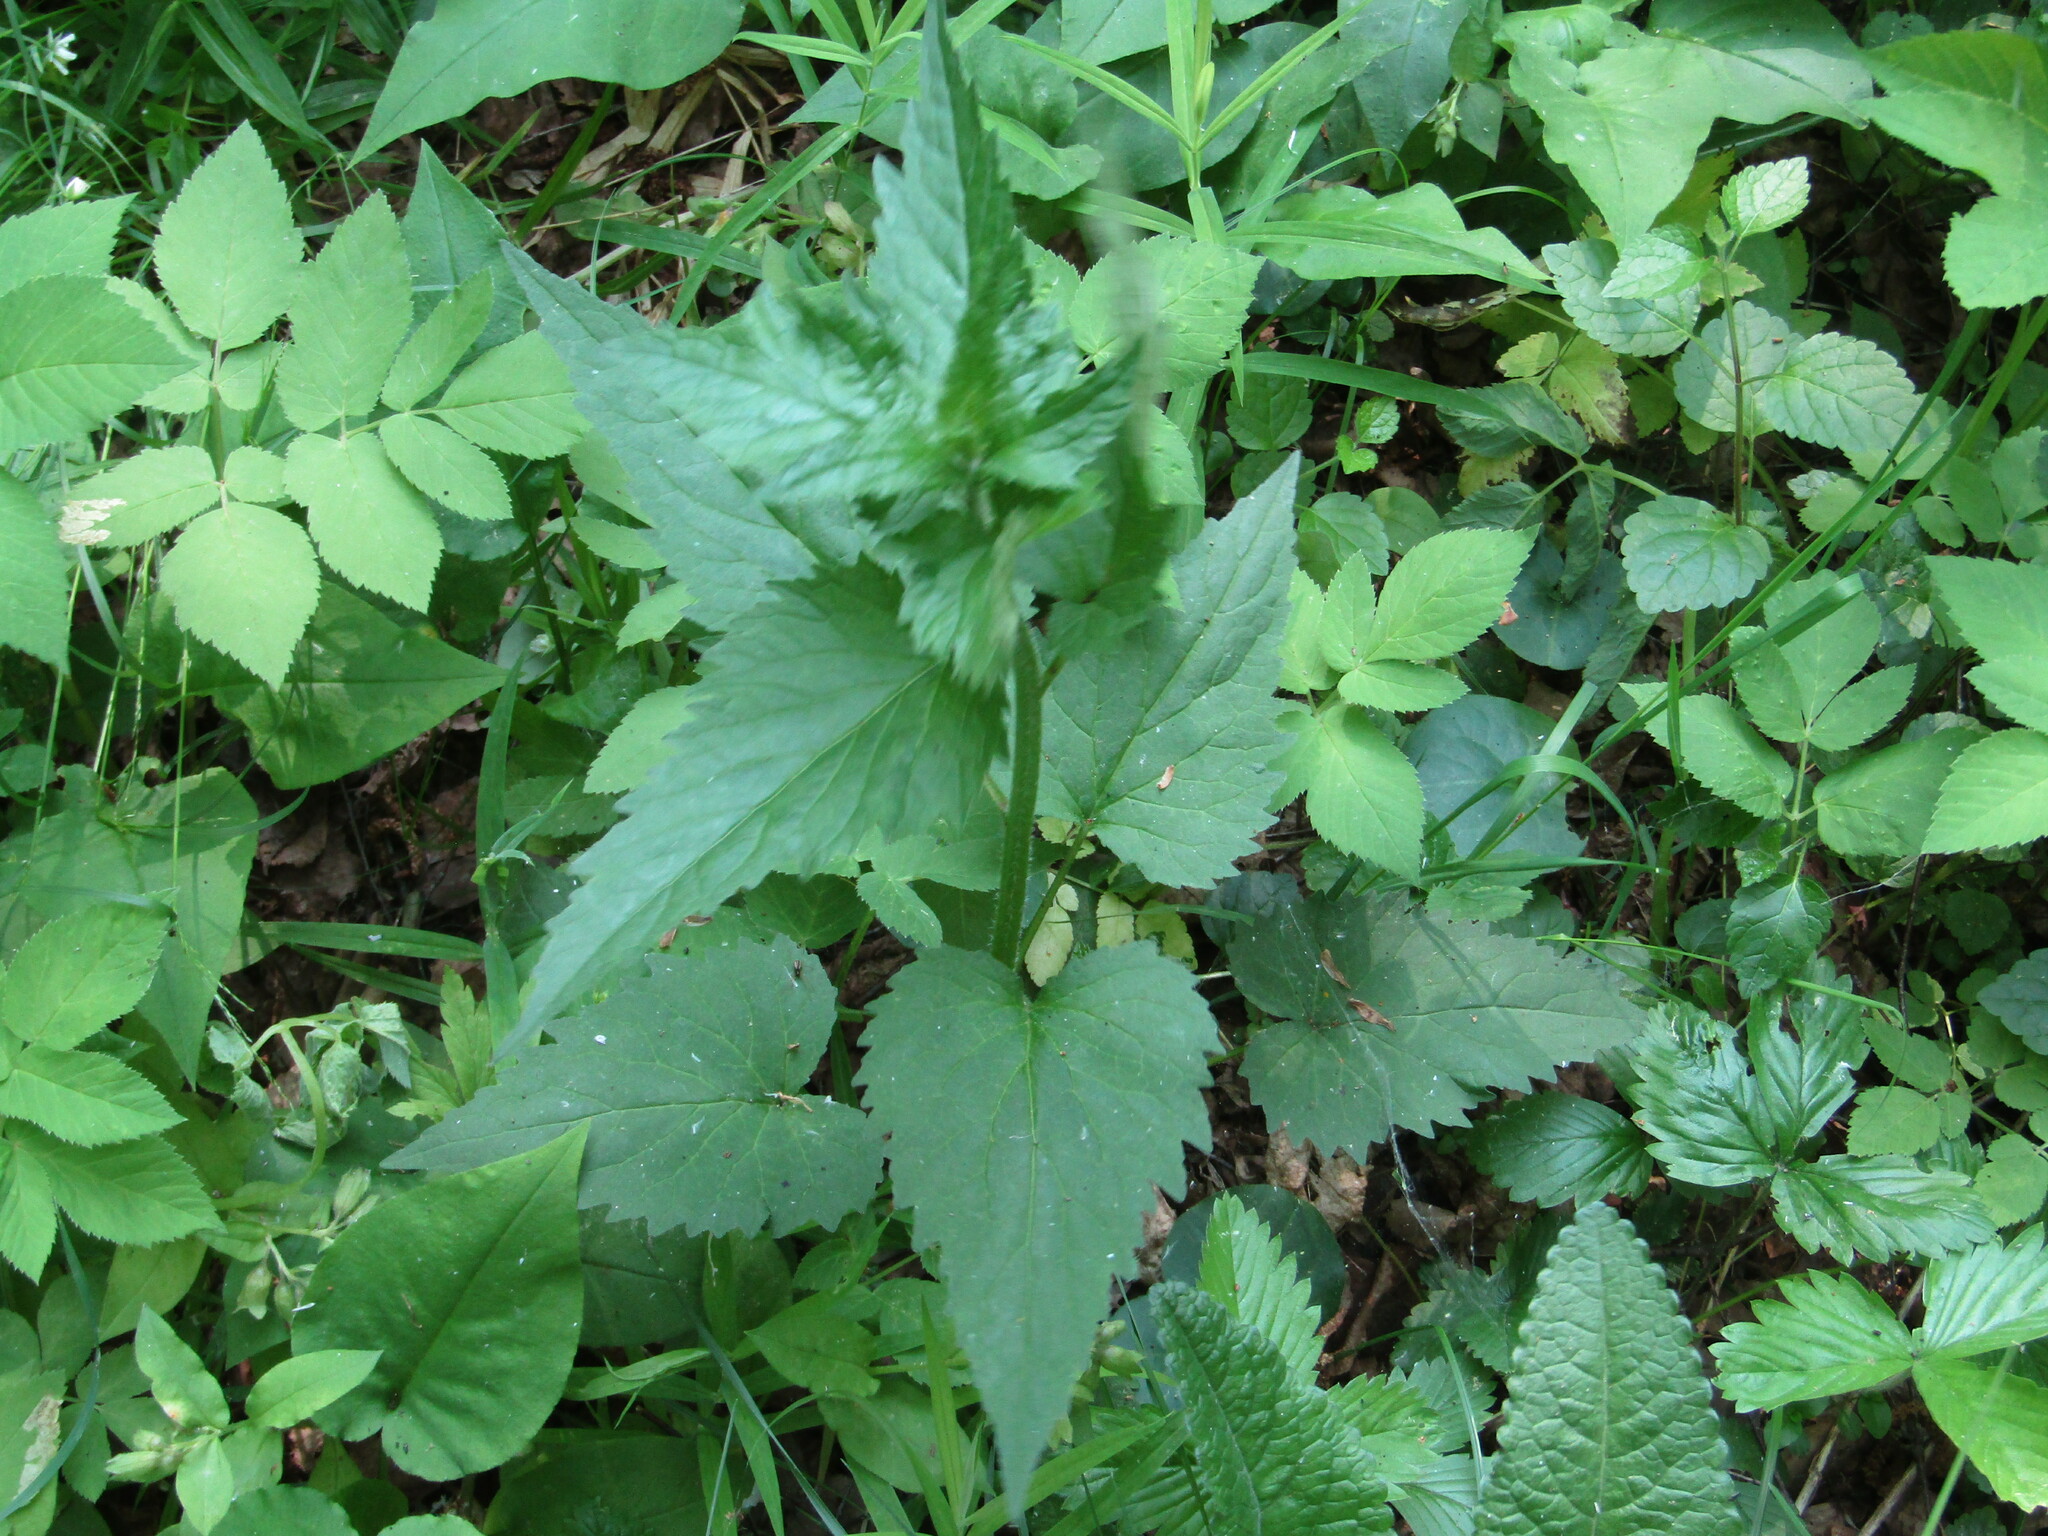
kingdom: Plantae
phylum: Tracheophyta
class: Magnoliopsida
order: Asterales
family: Campanulaceae
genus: Campanula
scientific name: Campanula trachelium
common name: Nettle-leaved bellflower
